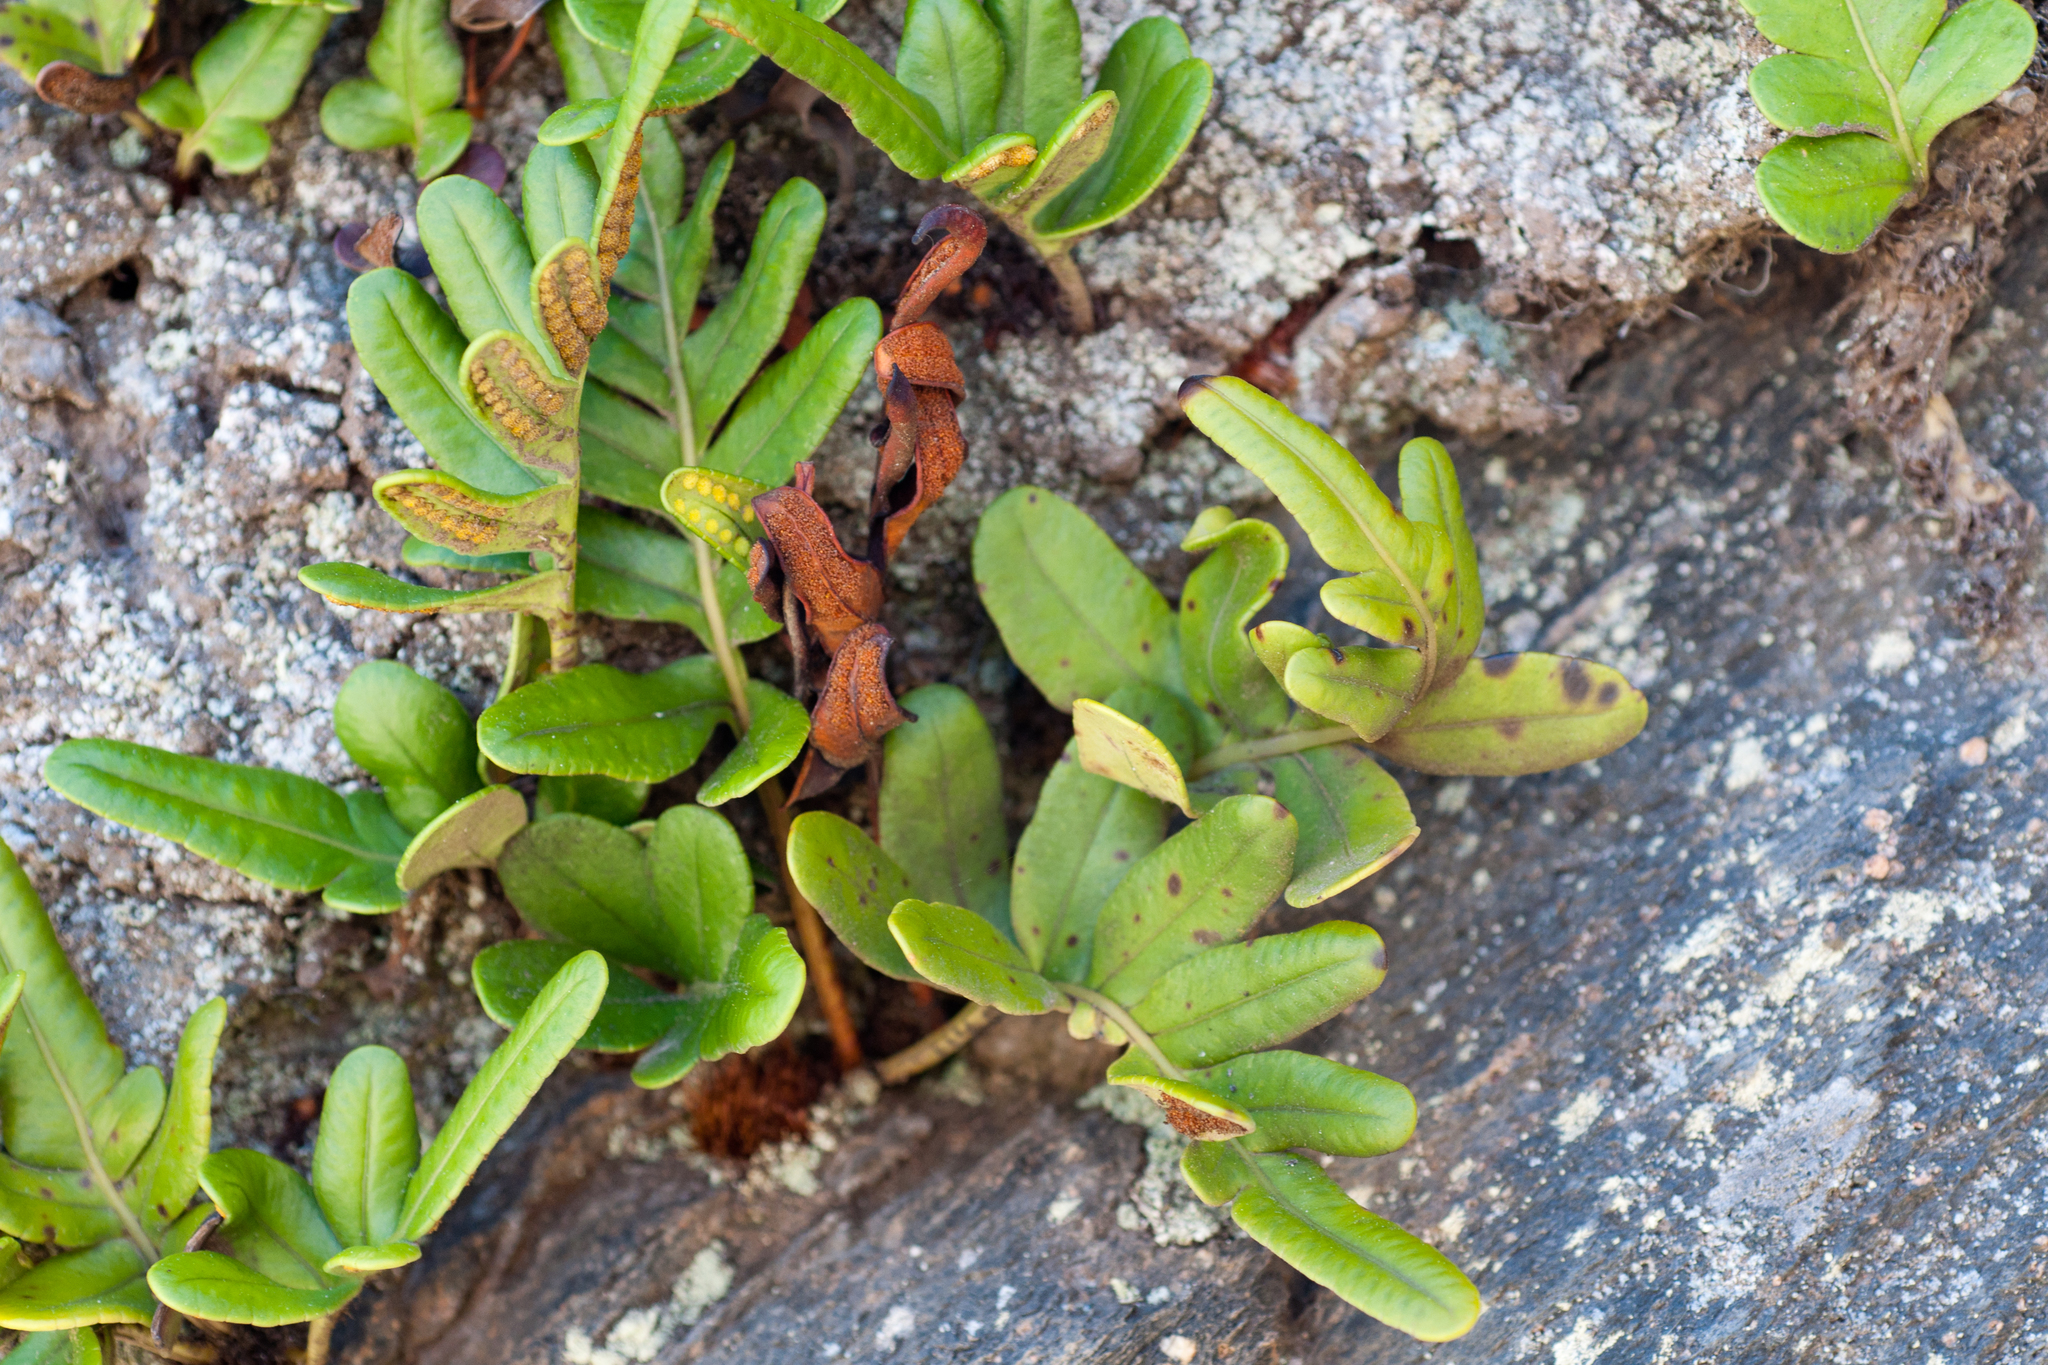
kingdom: Plantae
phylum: Tracheophyta
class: Polypodiopsida
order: Polypodiales
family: Polypodiaceae
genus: Polypodium
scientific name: Polypodium scouleri
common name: Scouler's polypody
